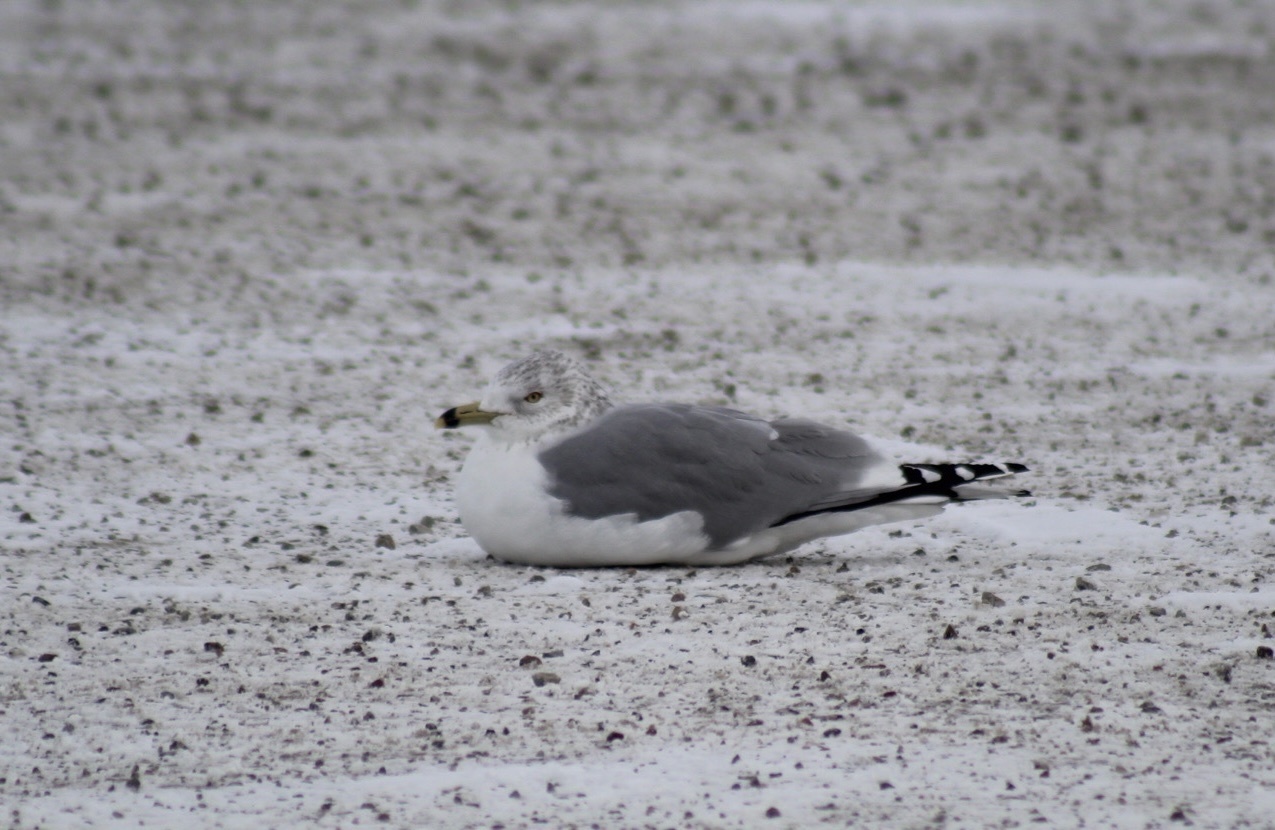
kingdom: Animalia
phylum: Chordata
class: Aves
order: Charadriiformes
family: Laridae
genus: Larus
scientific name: Larus delawarensis
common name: Ring-billed gull
